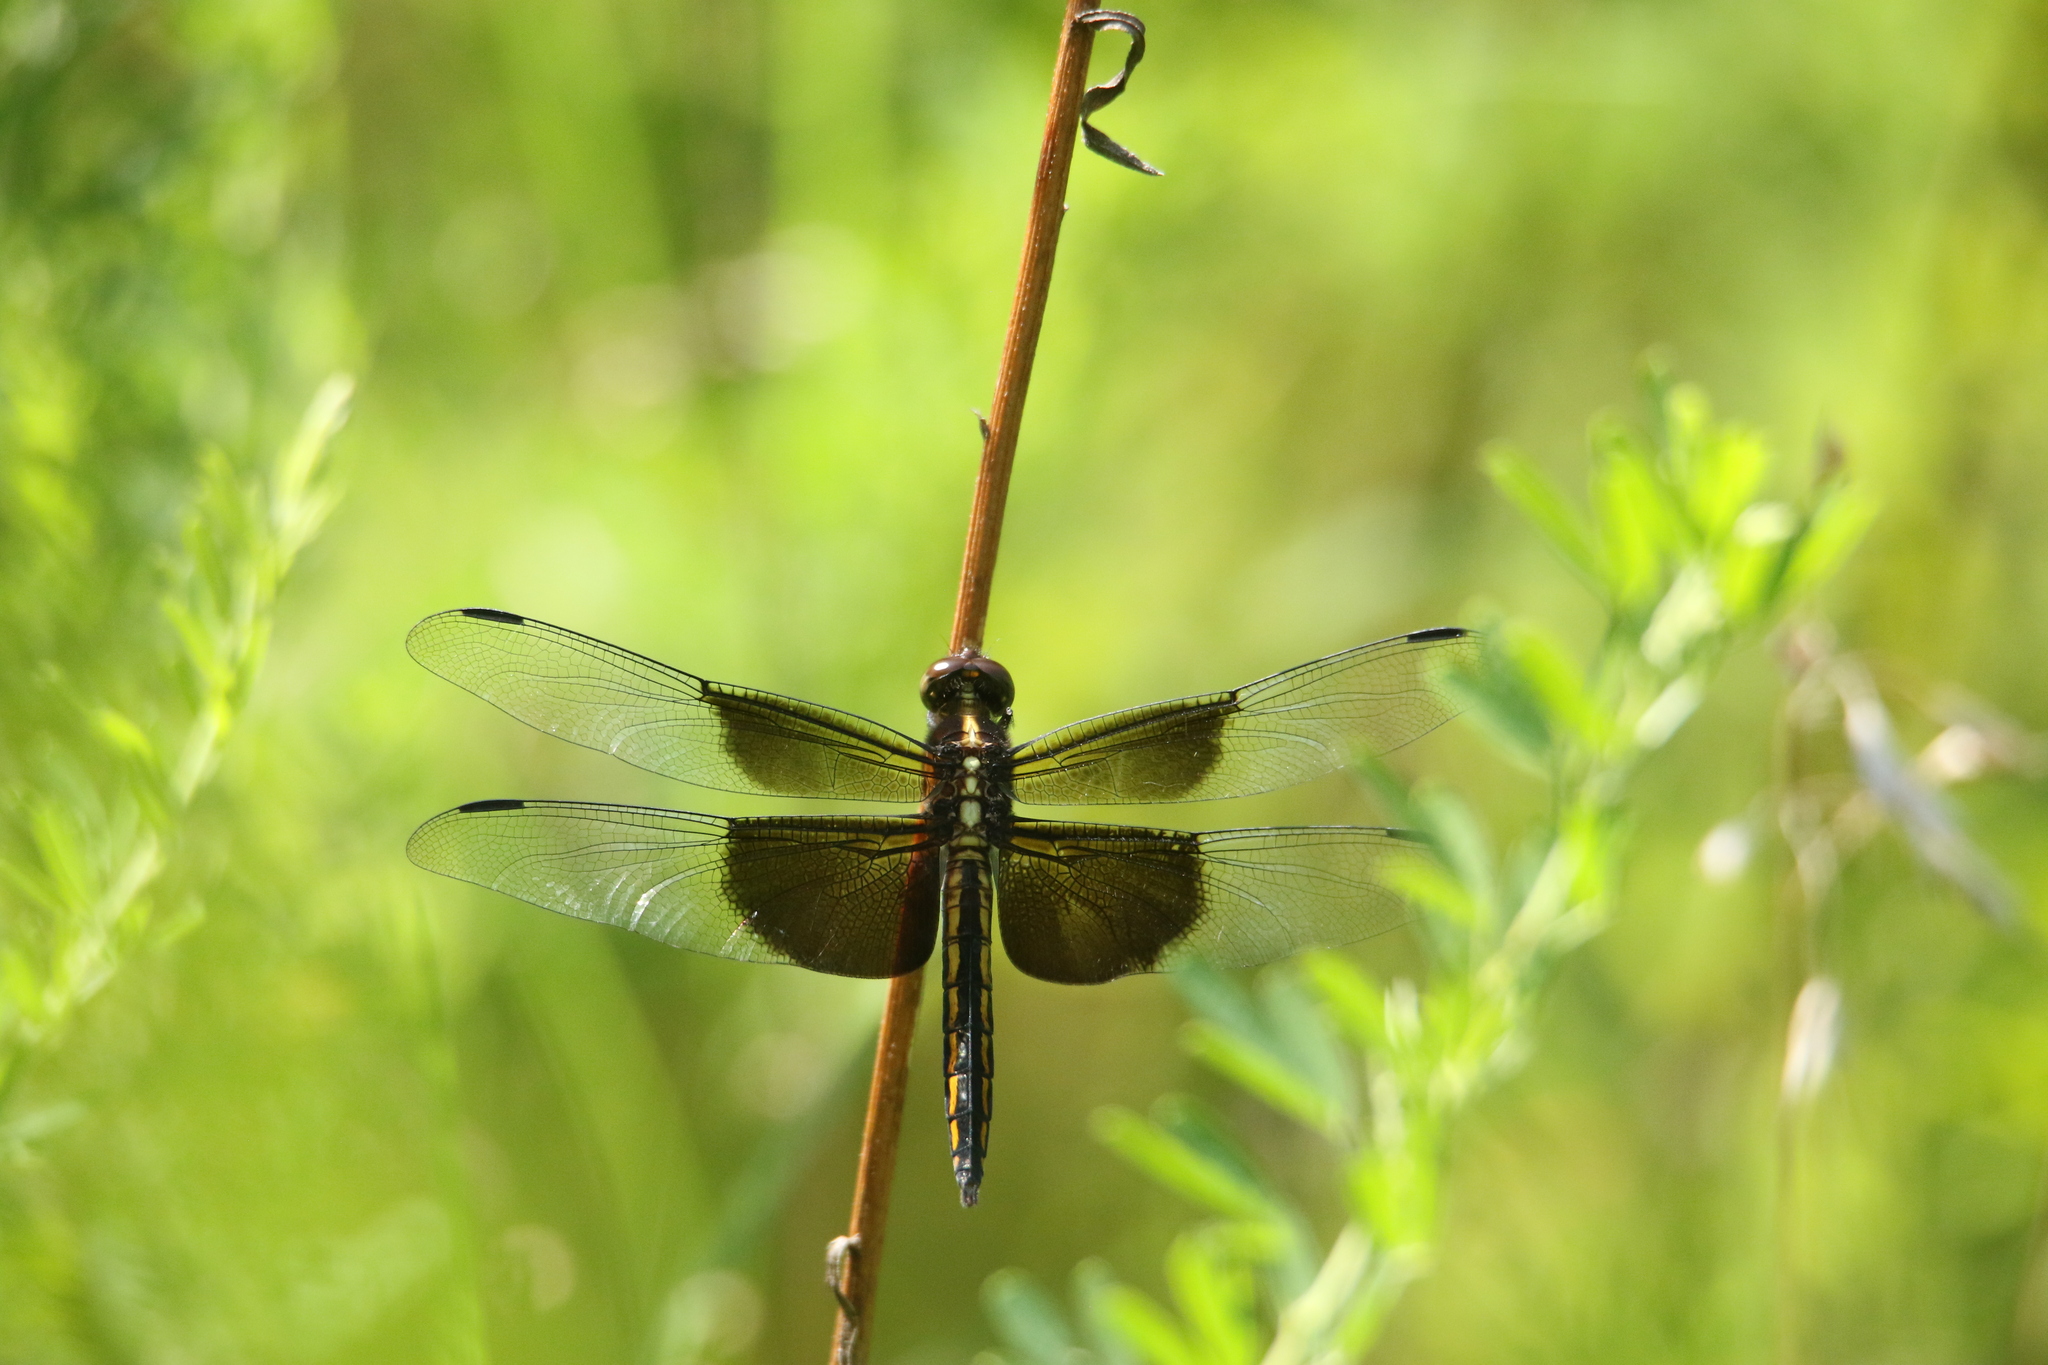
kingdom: Animalia
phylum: Arthropoda
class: Insecta
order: Odonata
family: Libellulidae
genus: Libellula
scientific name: Libellula luctuosa
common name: Widow skimmer
